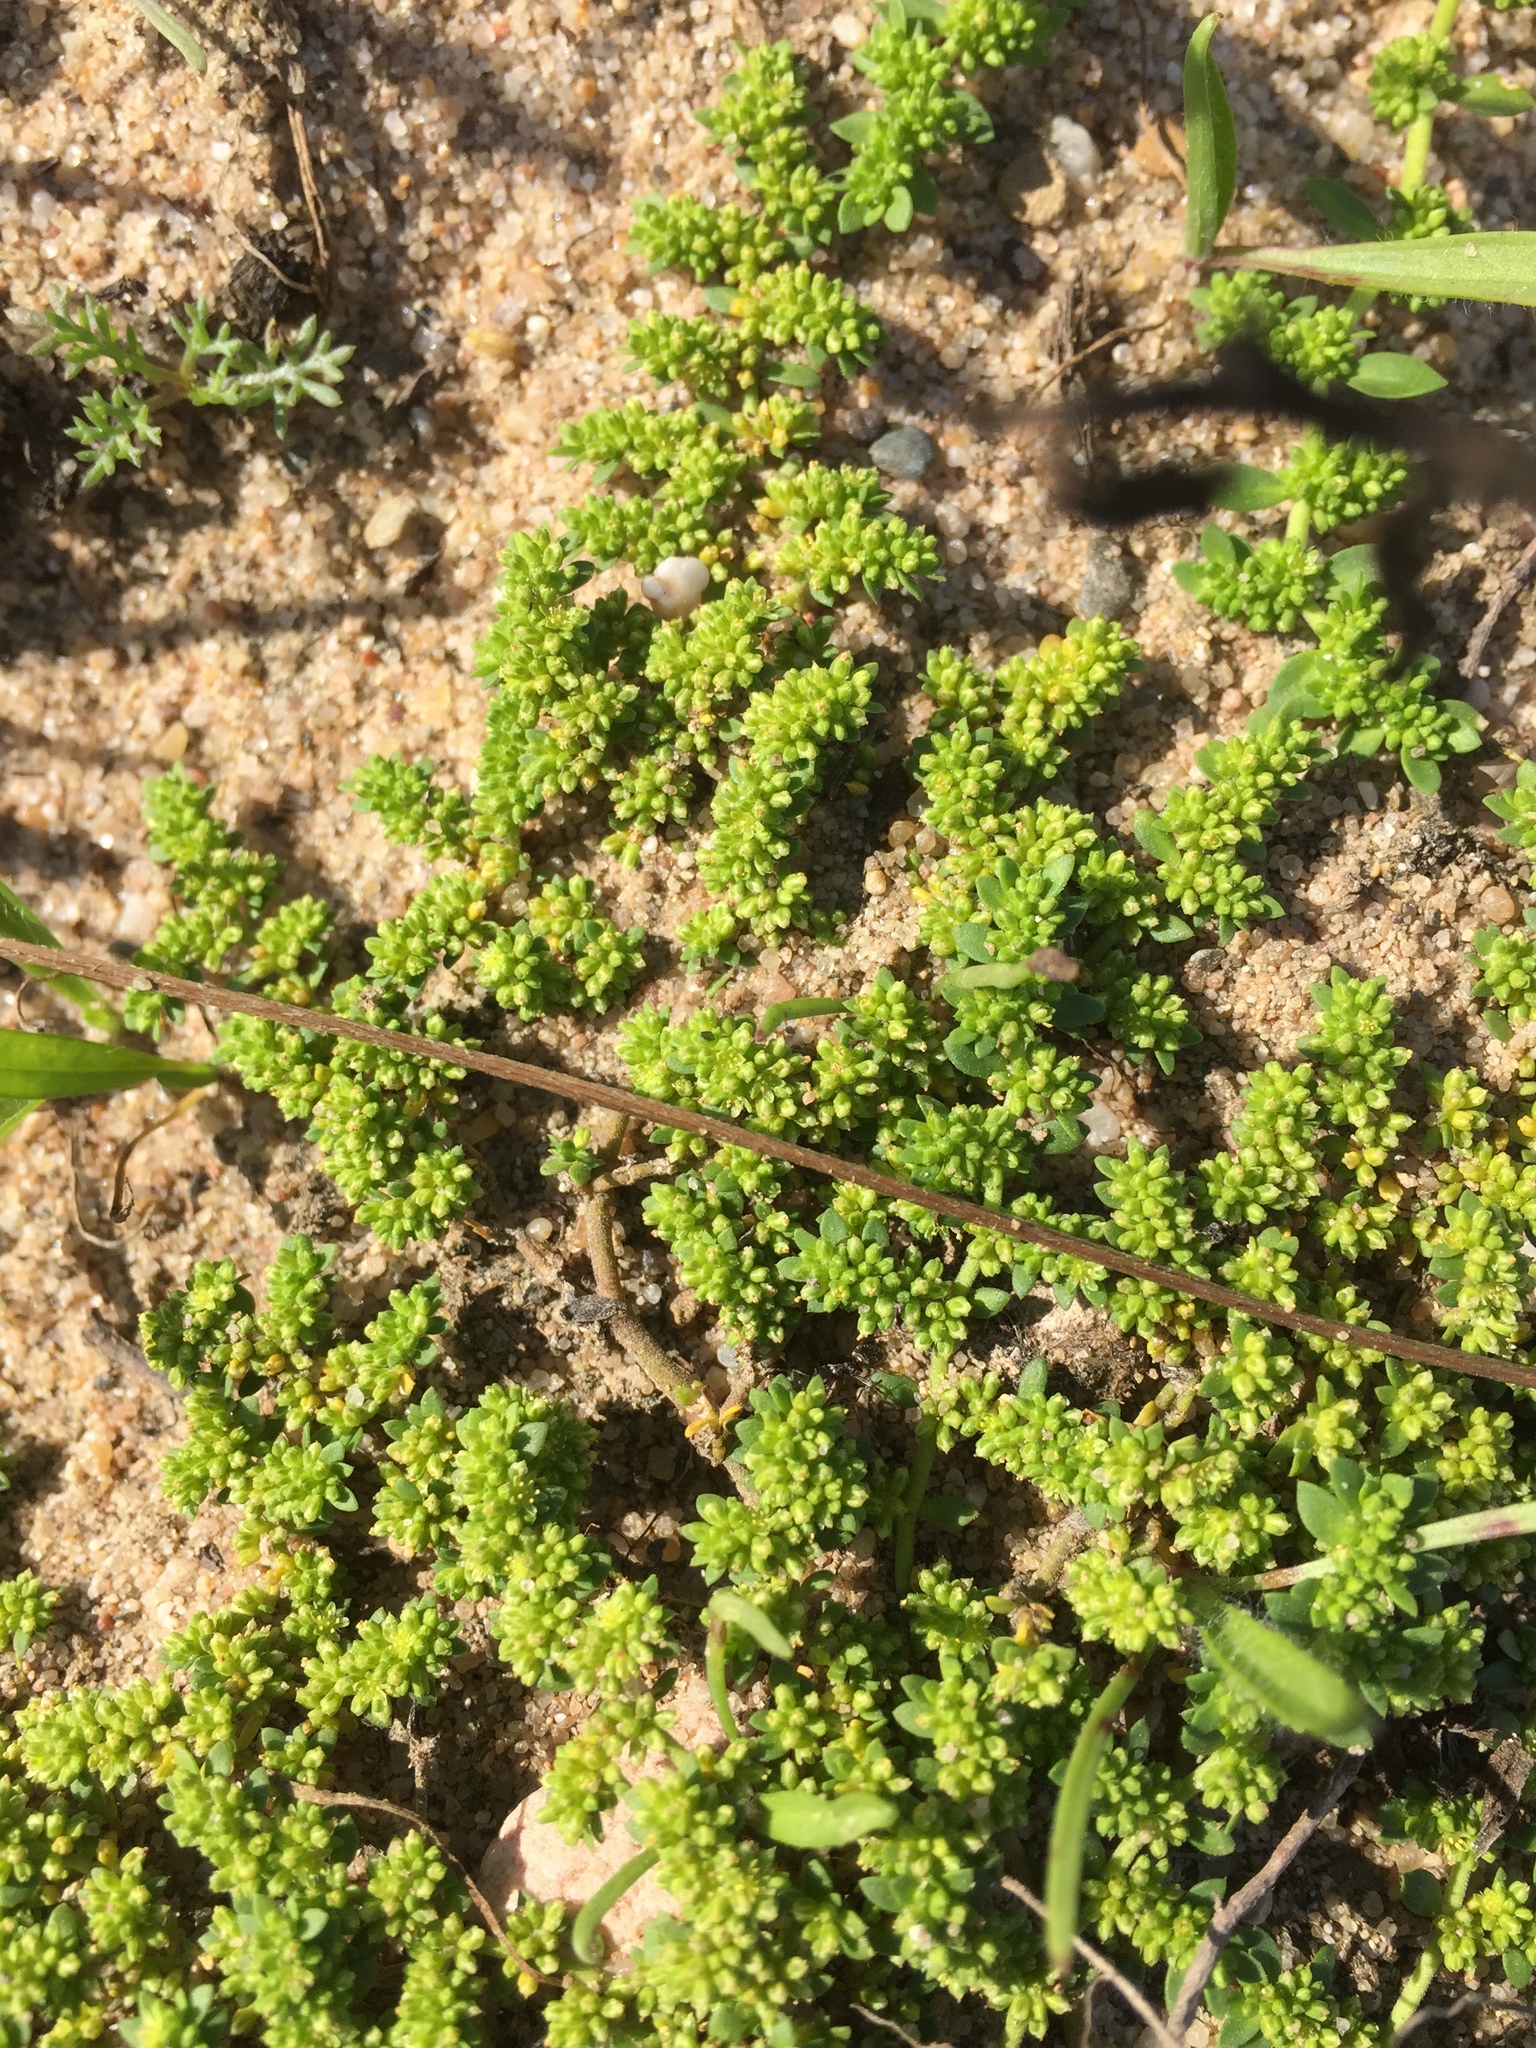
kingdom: Plantae
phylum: Tracheophyta
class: Magnoliopsida
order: Caryophyllales
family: Caryophyllaceae
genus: Herniaria
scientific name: Herniaria glabra
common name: Smooth rupturewort
